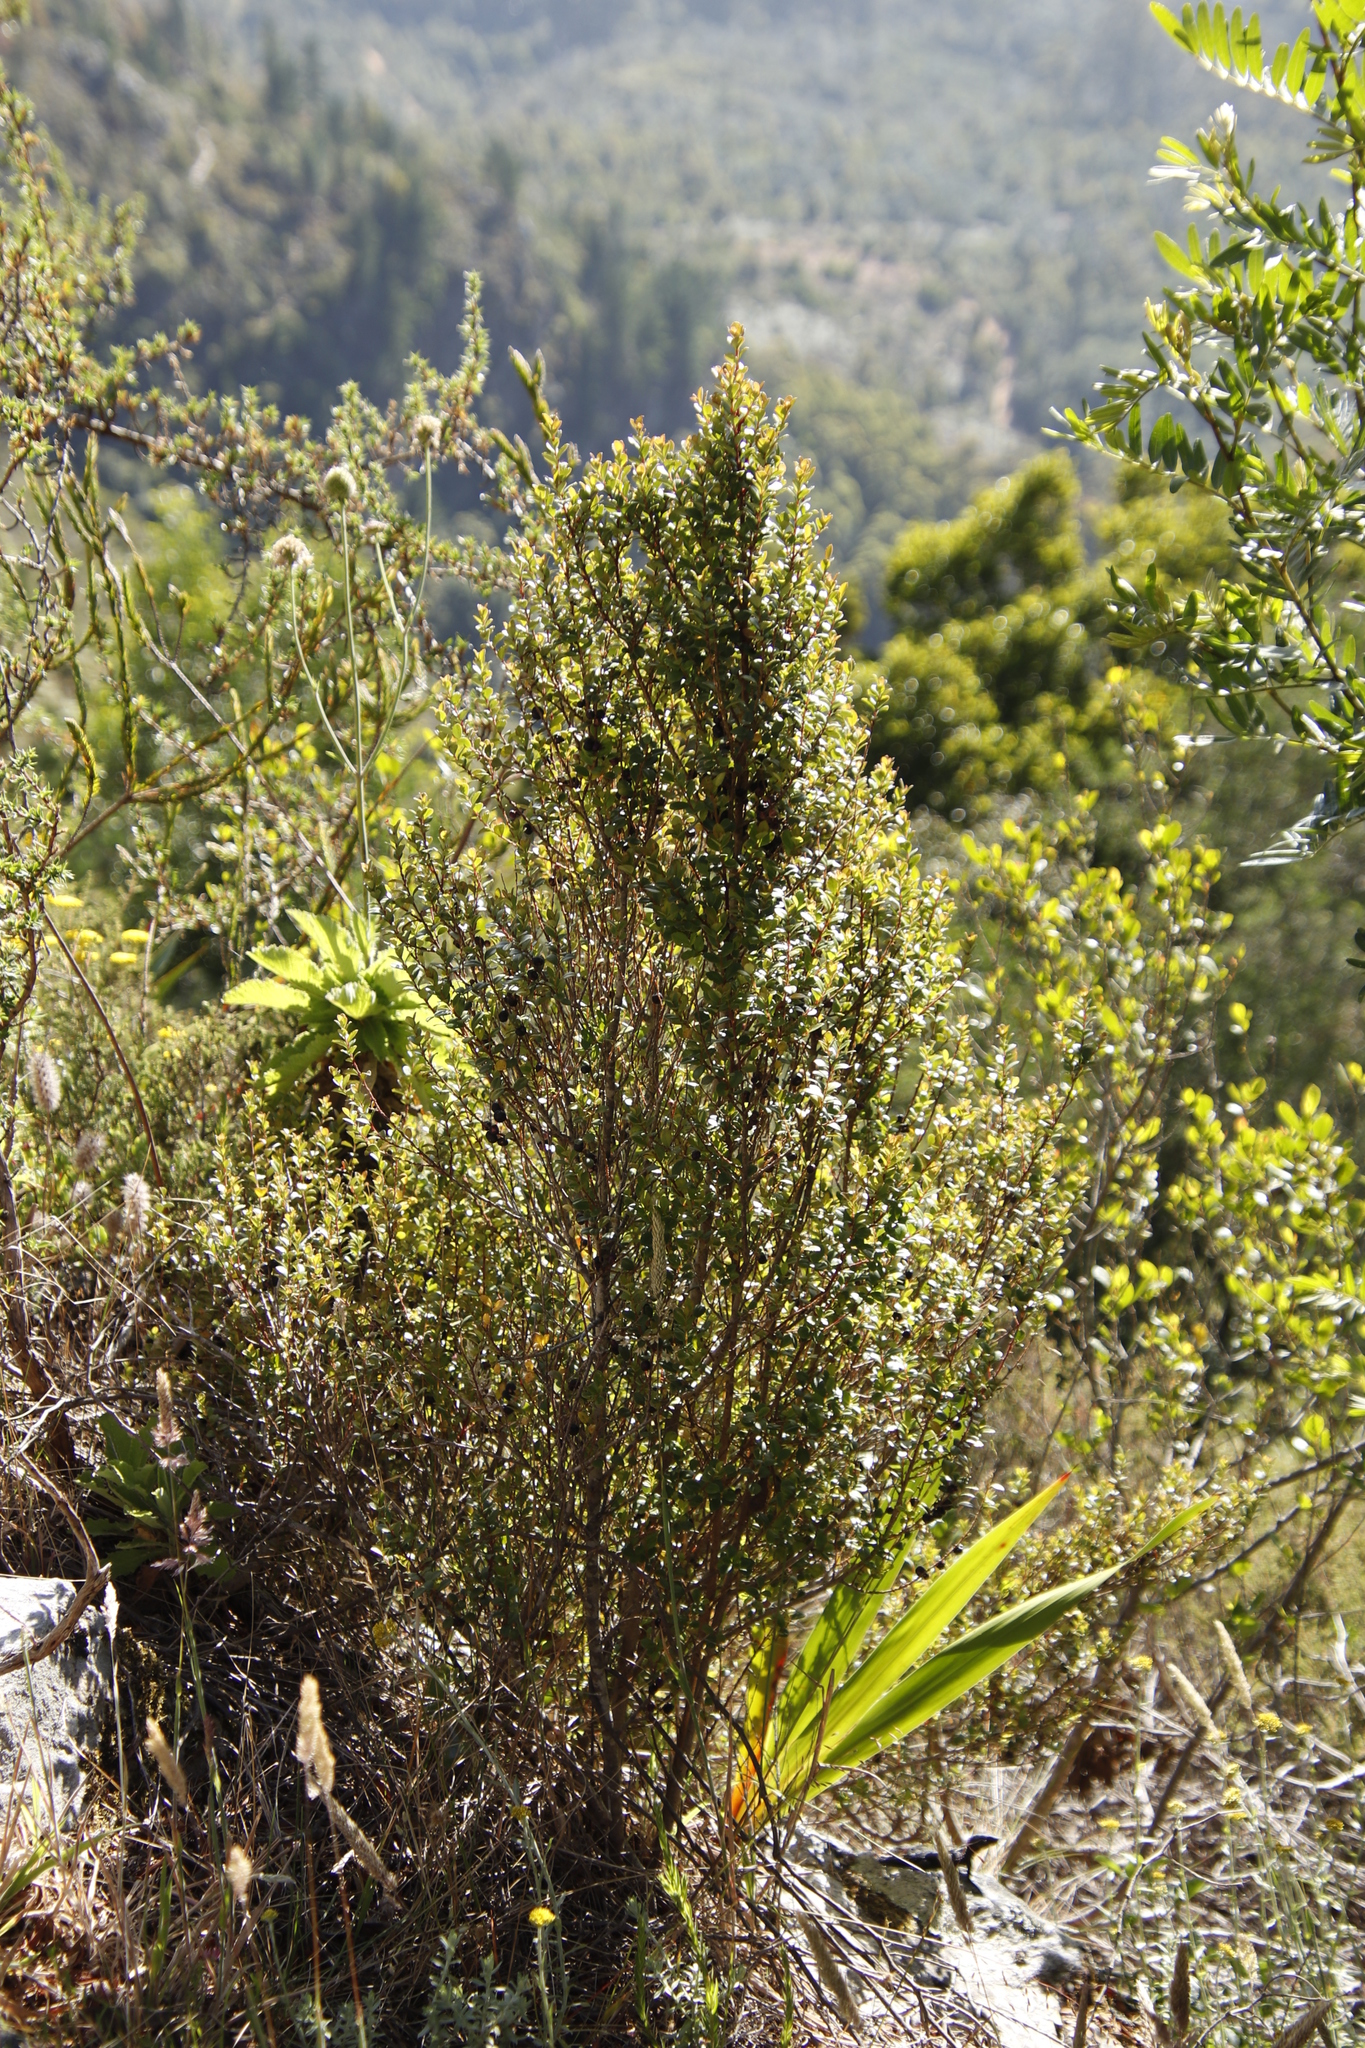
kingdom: Plantae
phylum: Tracheophyta
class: Magnoliopsida
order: Ericales
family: Primulaceae
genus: Myrsine
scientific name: Myrsine africana
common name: African-boxwood
